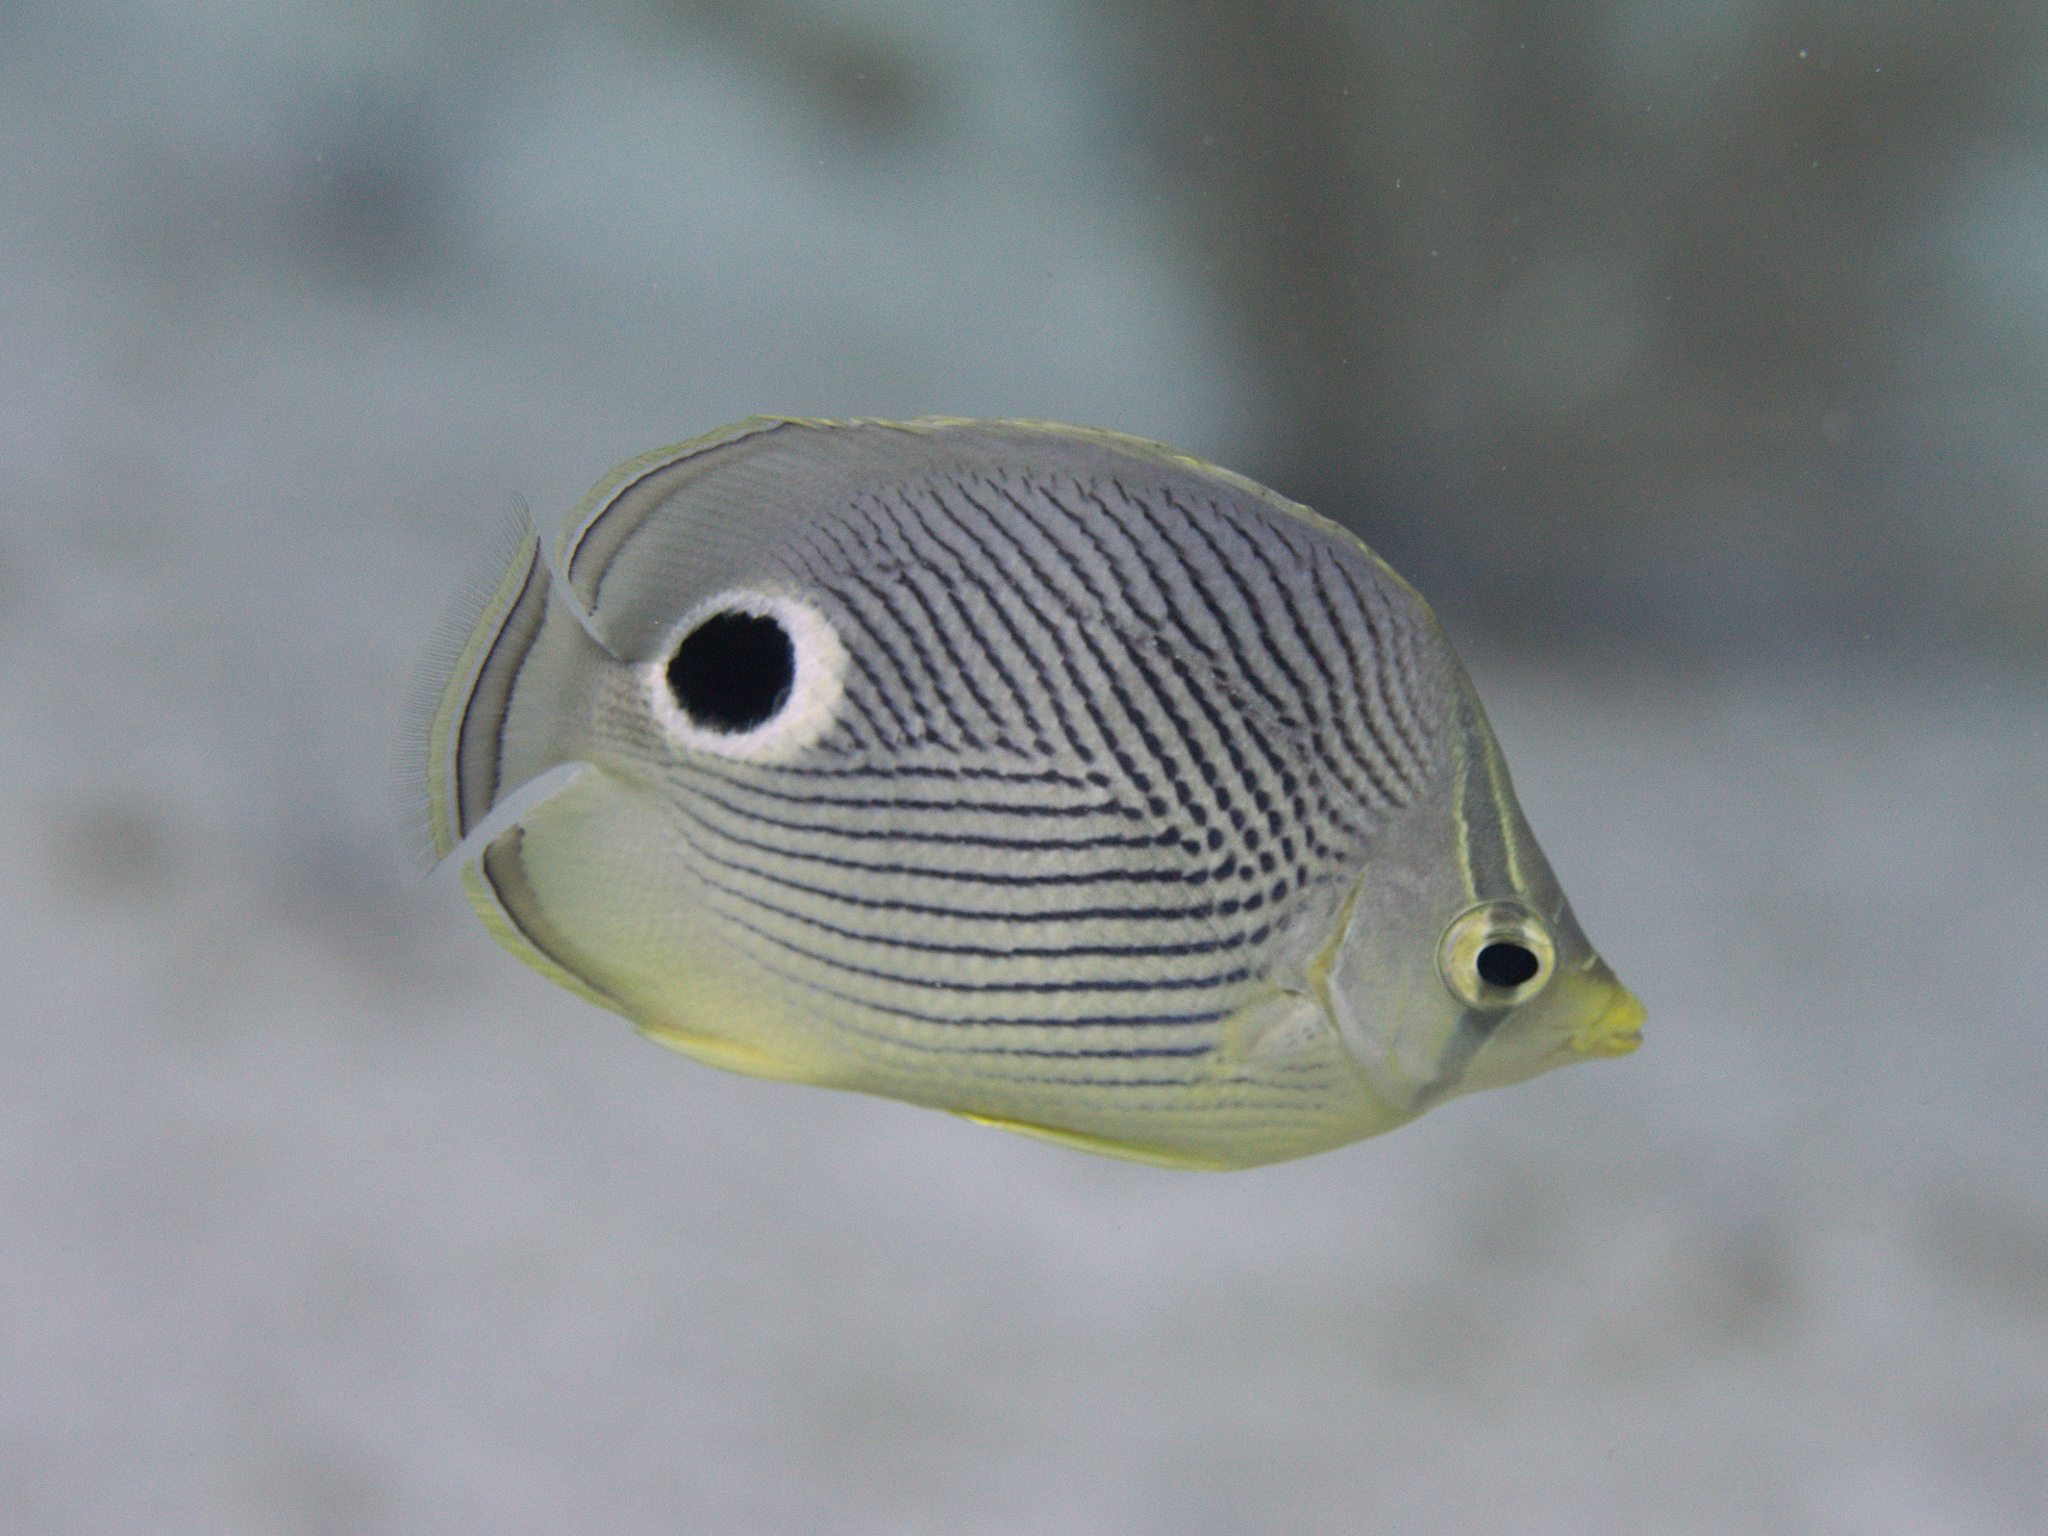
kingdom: Animalia
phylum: Chordata
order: Perciformes
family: Chaetodontidae
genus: Chaetodon
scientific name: Chaetodon capistratus
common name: Kete
